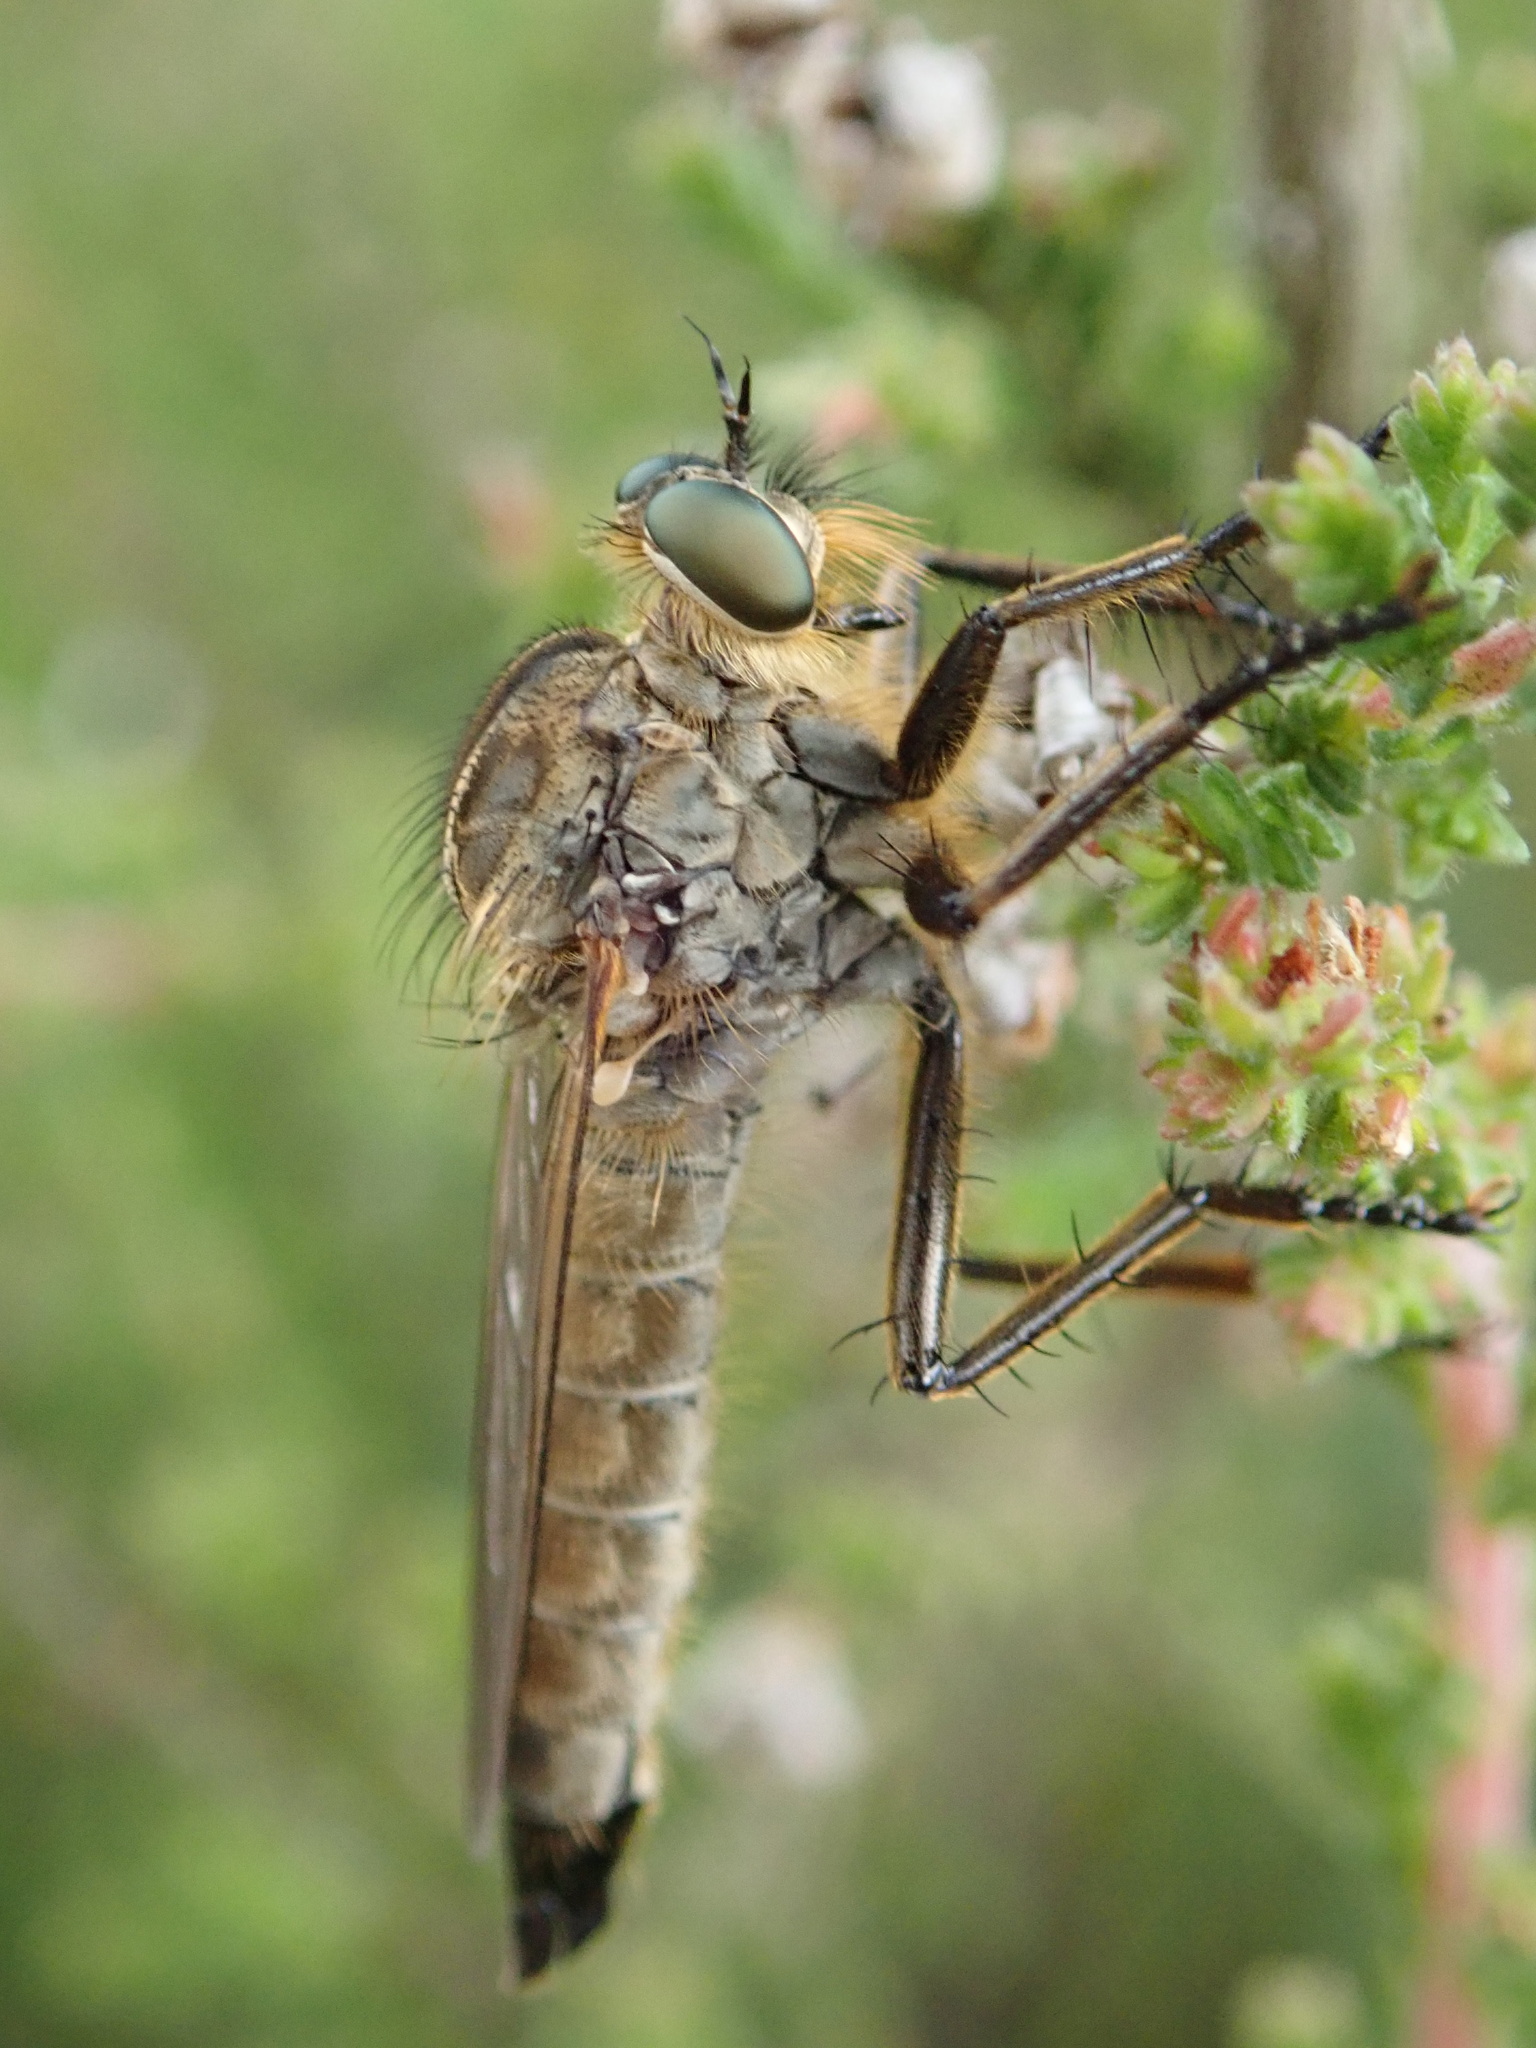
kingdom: Animalia
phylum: Arthropoda
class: Insecta
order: Diptera
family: Asilidae
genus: Eutolmus
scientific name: Eutolmus rufibarbis
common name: Golden-tabbed robberfly
